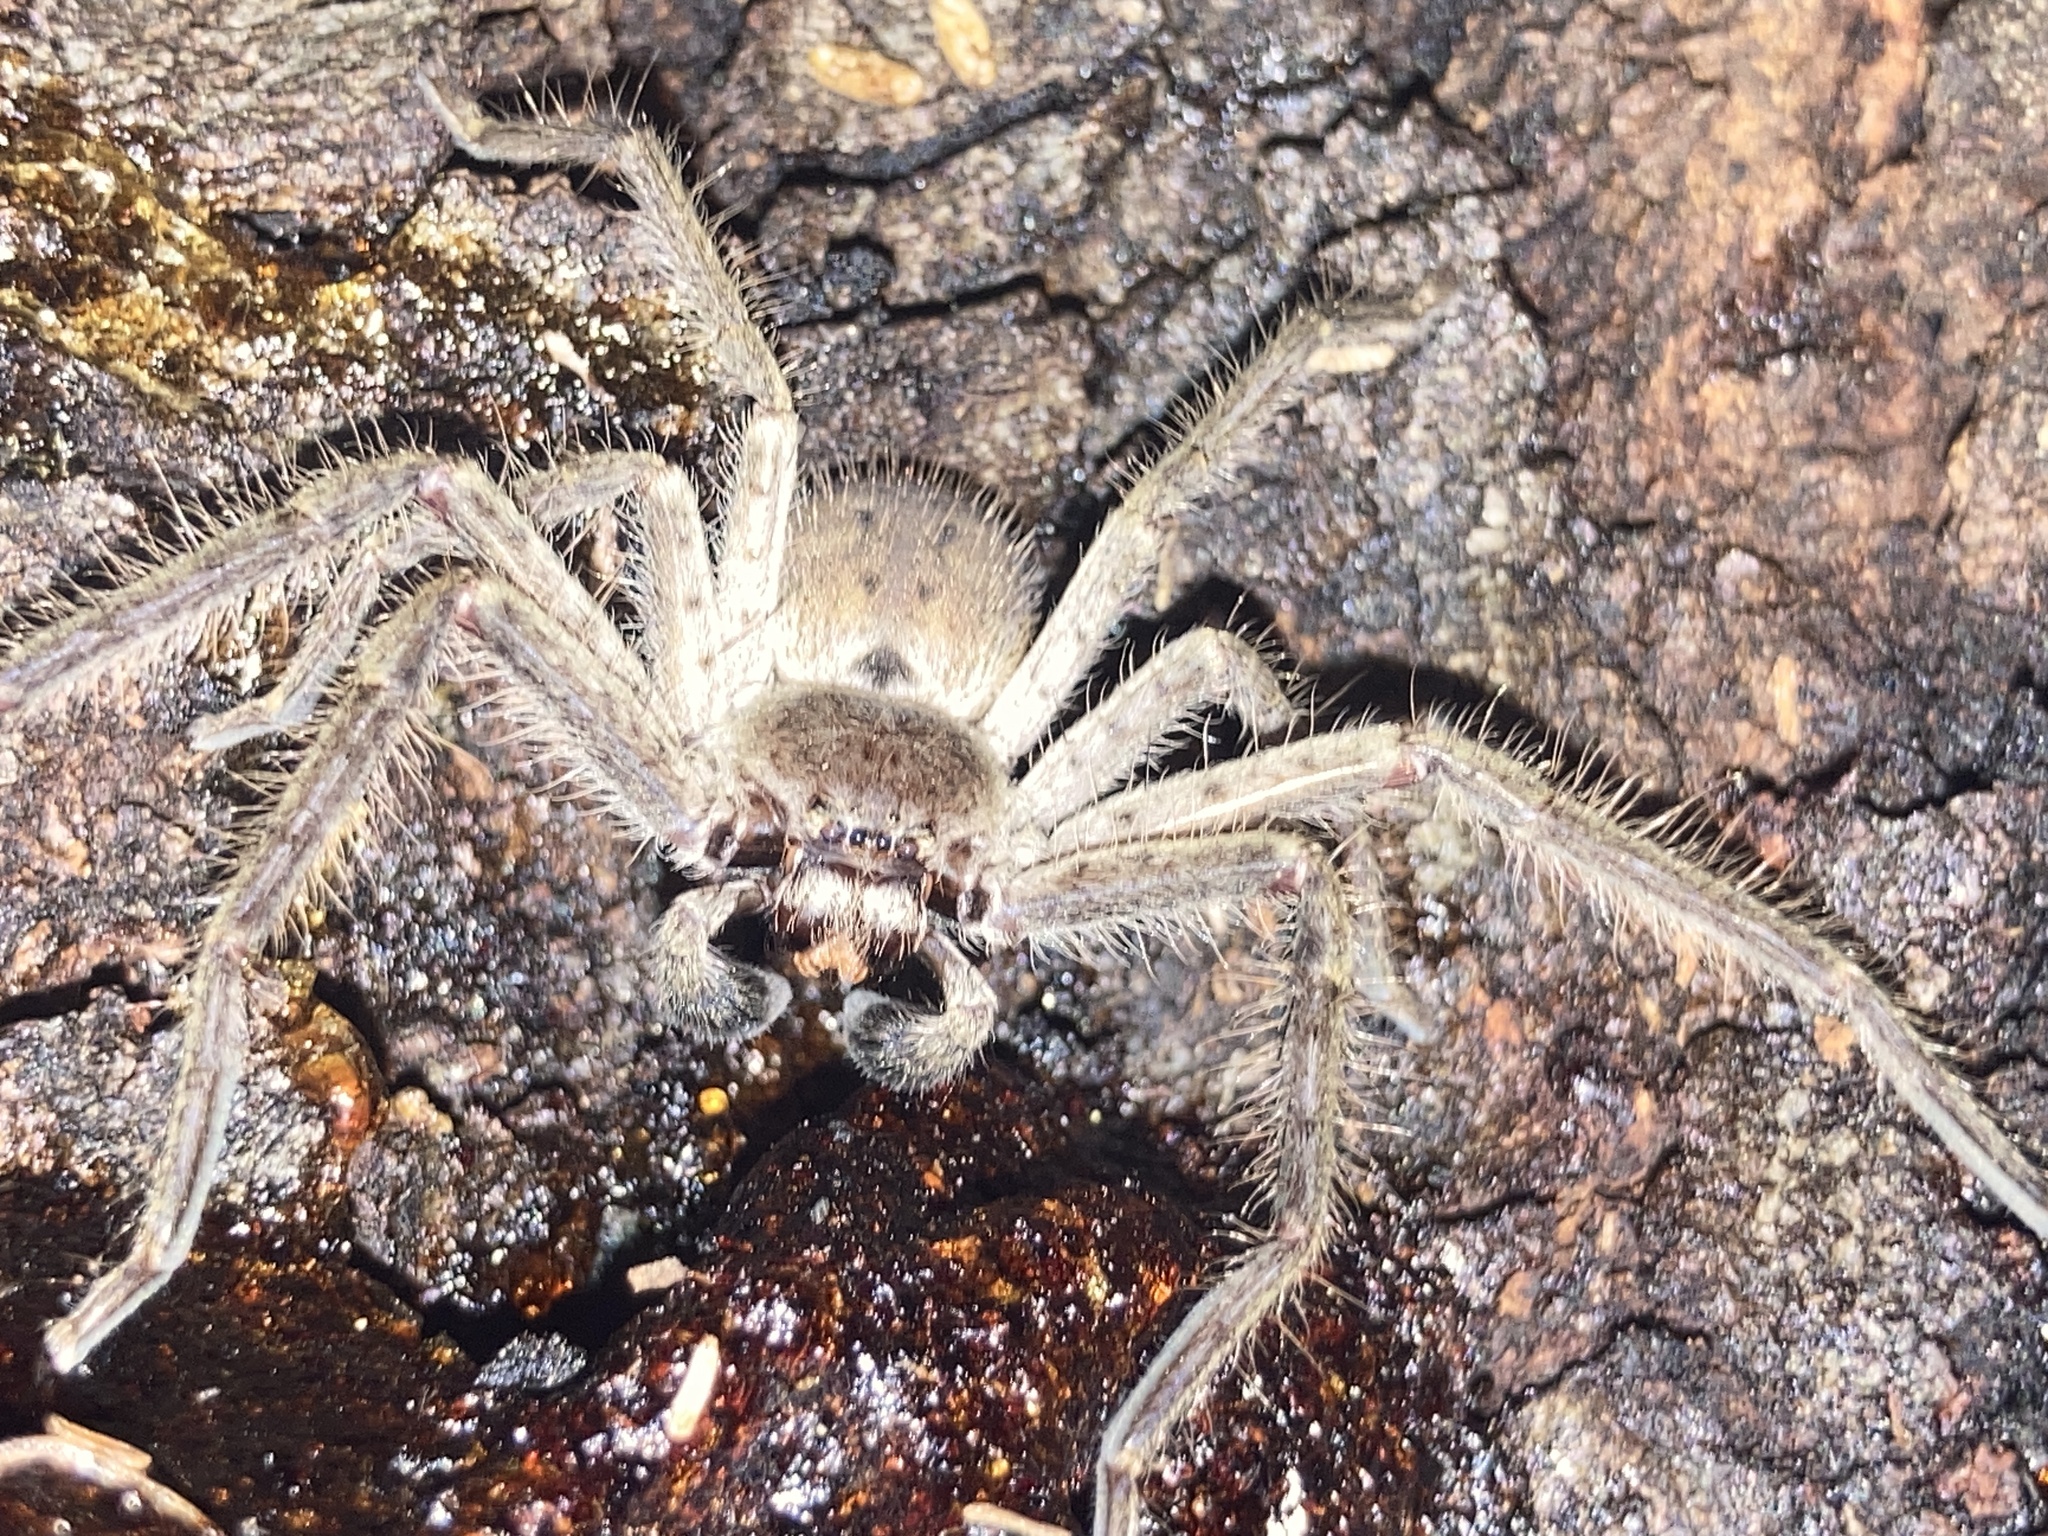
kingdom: Animalia
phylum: Arthropoda
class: Arachnida
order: Araneae
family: Sparassidae
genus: Isopeda
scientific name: Isopeda villosa
